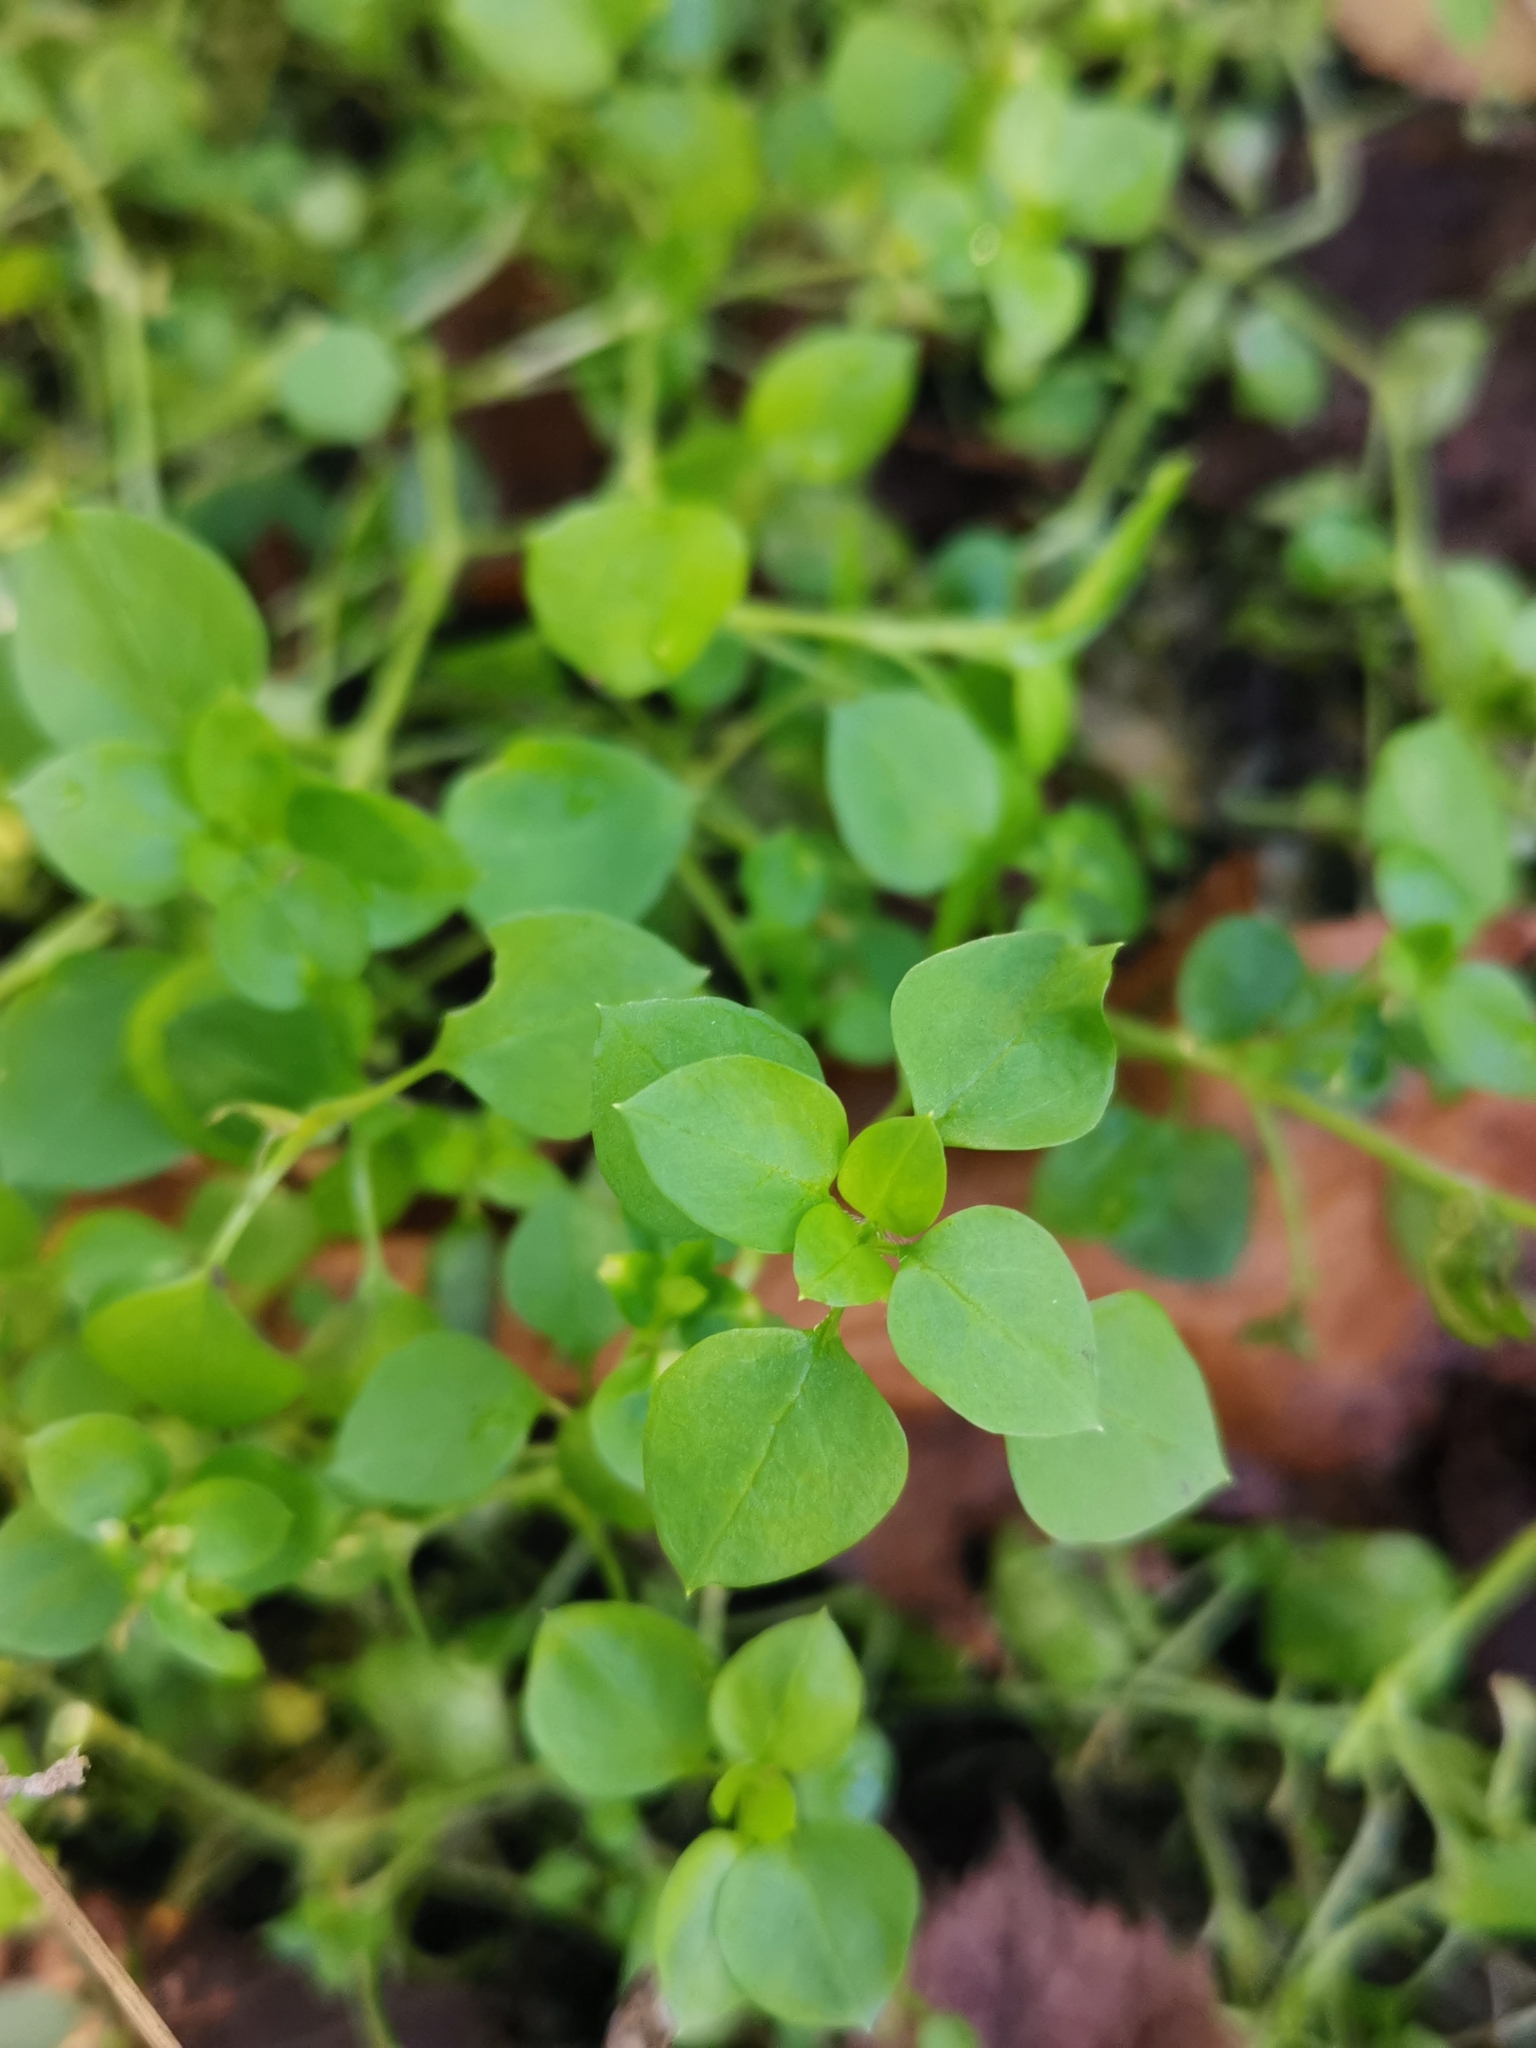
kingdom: Plantae
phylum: Tracheophyta
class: Magnoliopsida
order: Caryophyllales
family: Caryophyllaceae
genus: Stellaria
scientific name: Stellaria media
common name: Common chickweed
